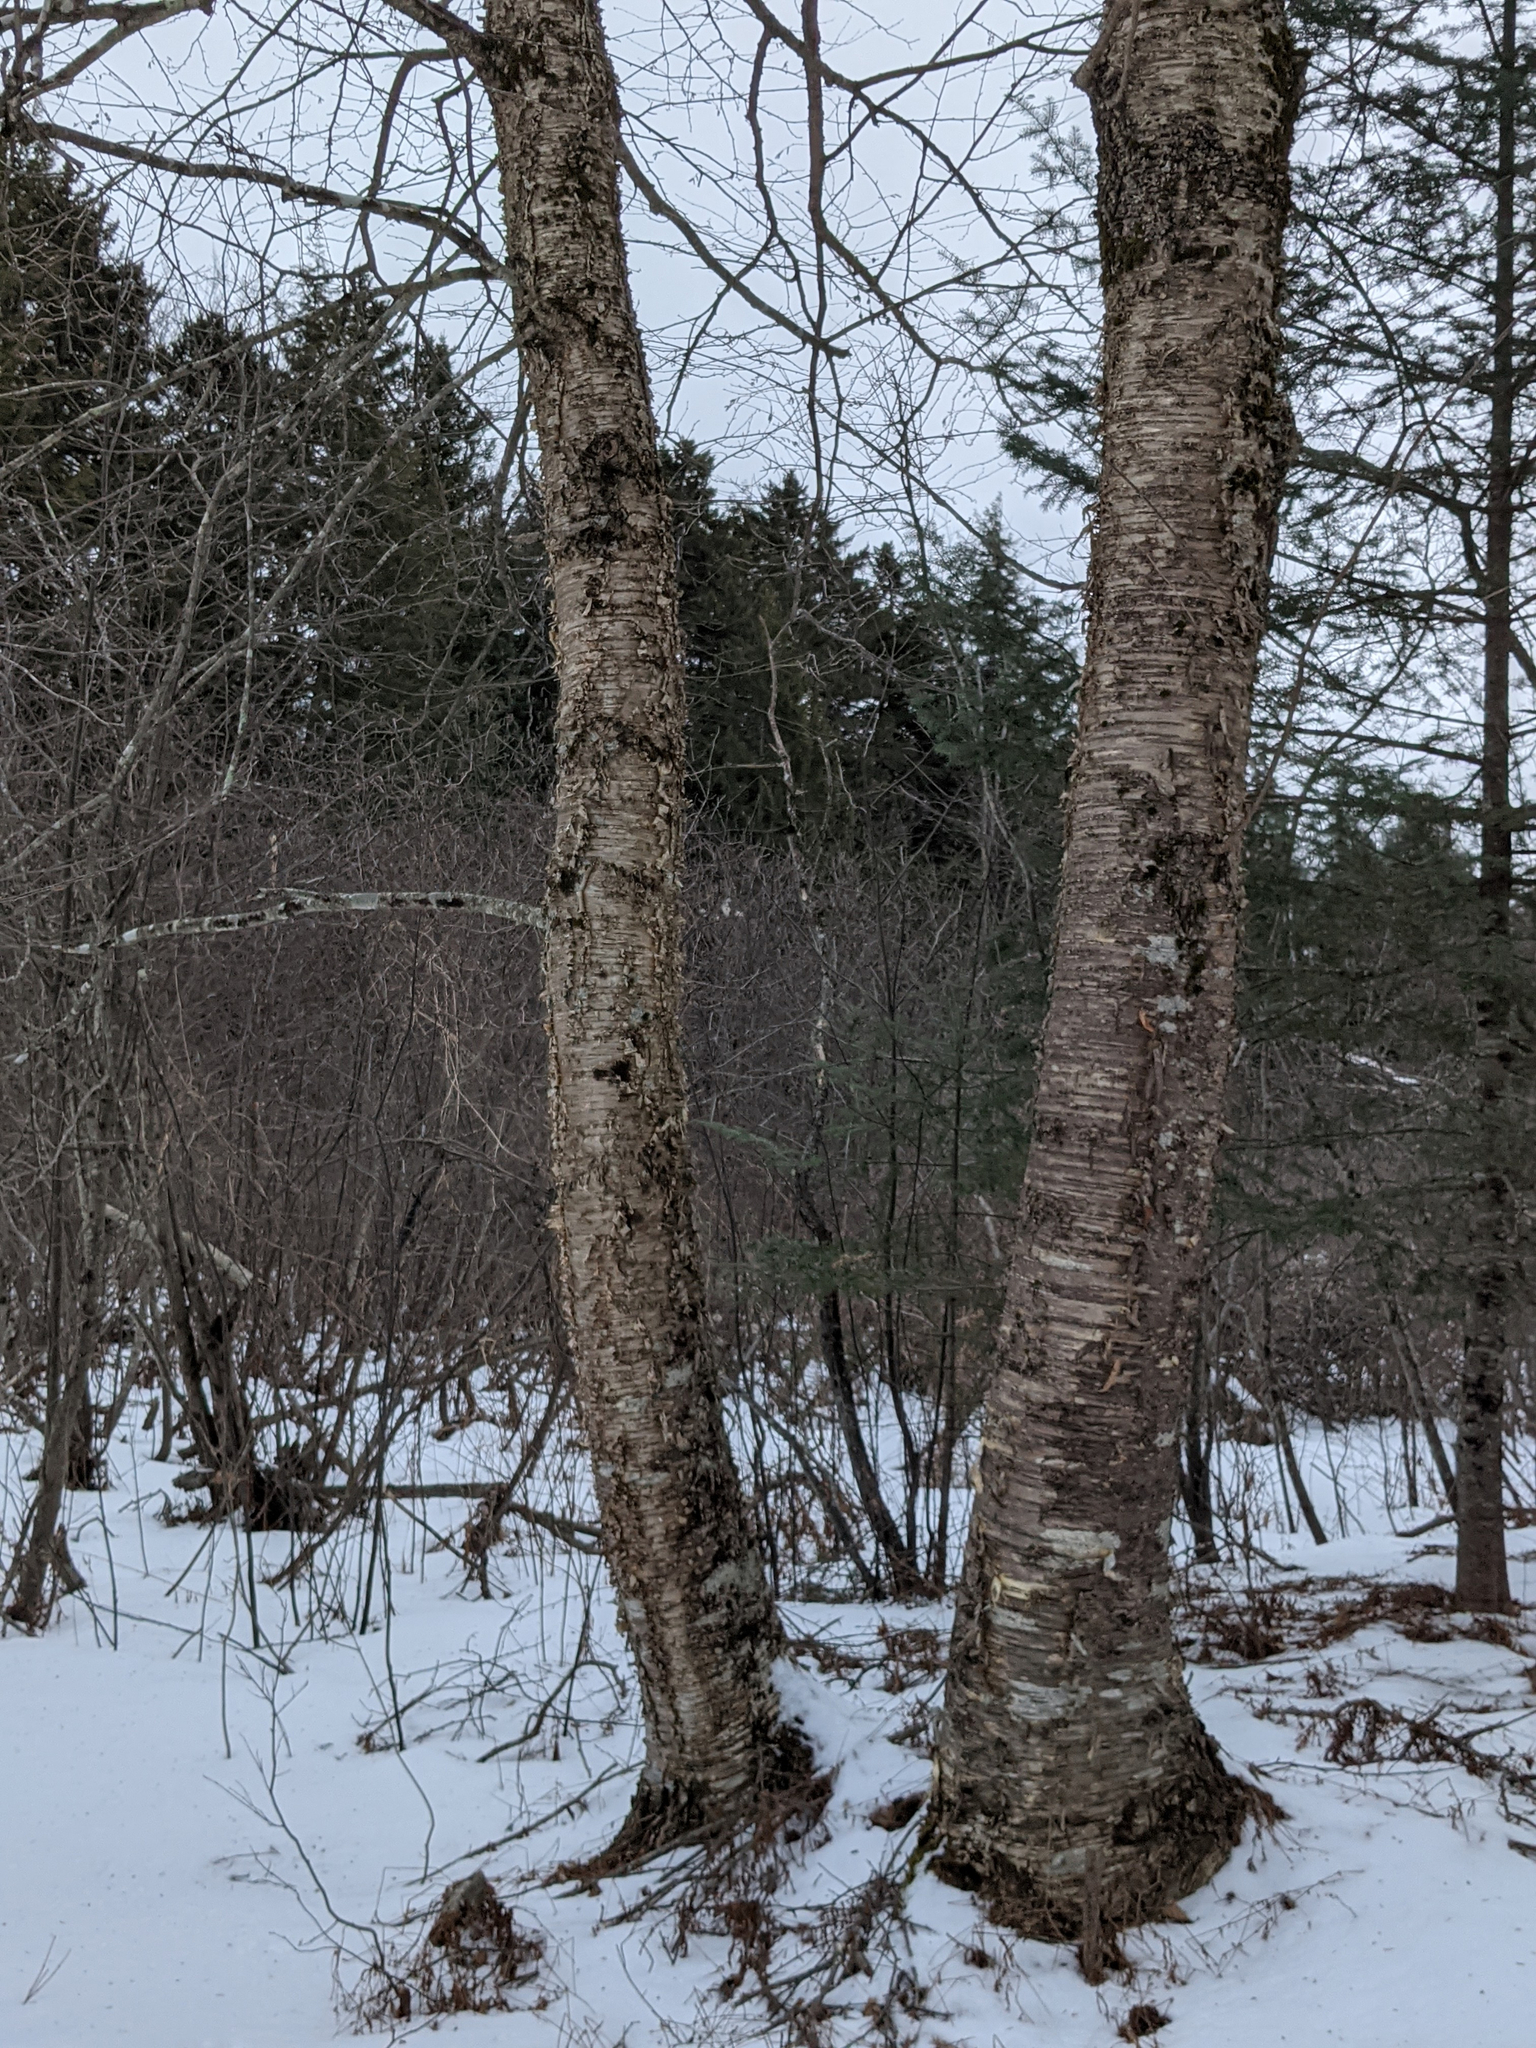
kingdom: Plantae
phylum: Tracheophyta
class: Magnoliopsida
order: Fagales
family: Betulaceae
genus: Betula
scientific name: Betula alleghaniensis
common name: Yellow birch
